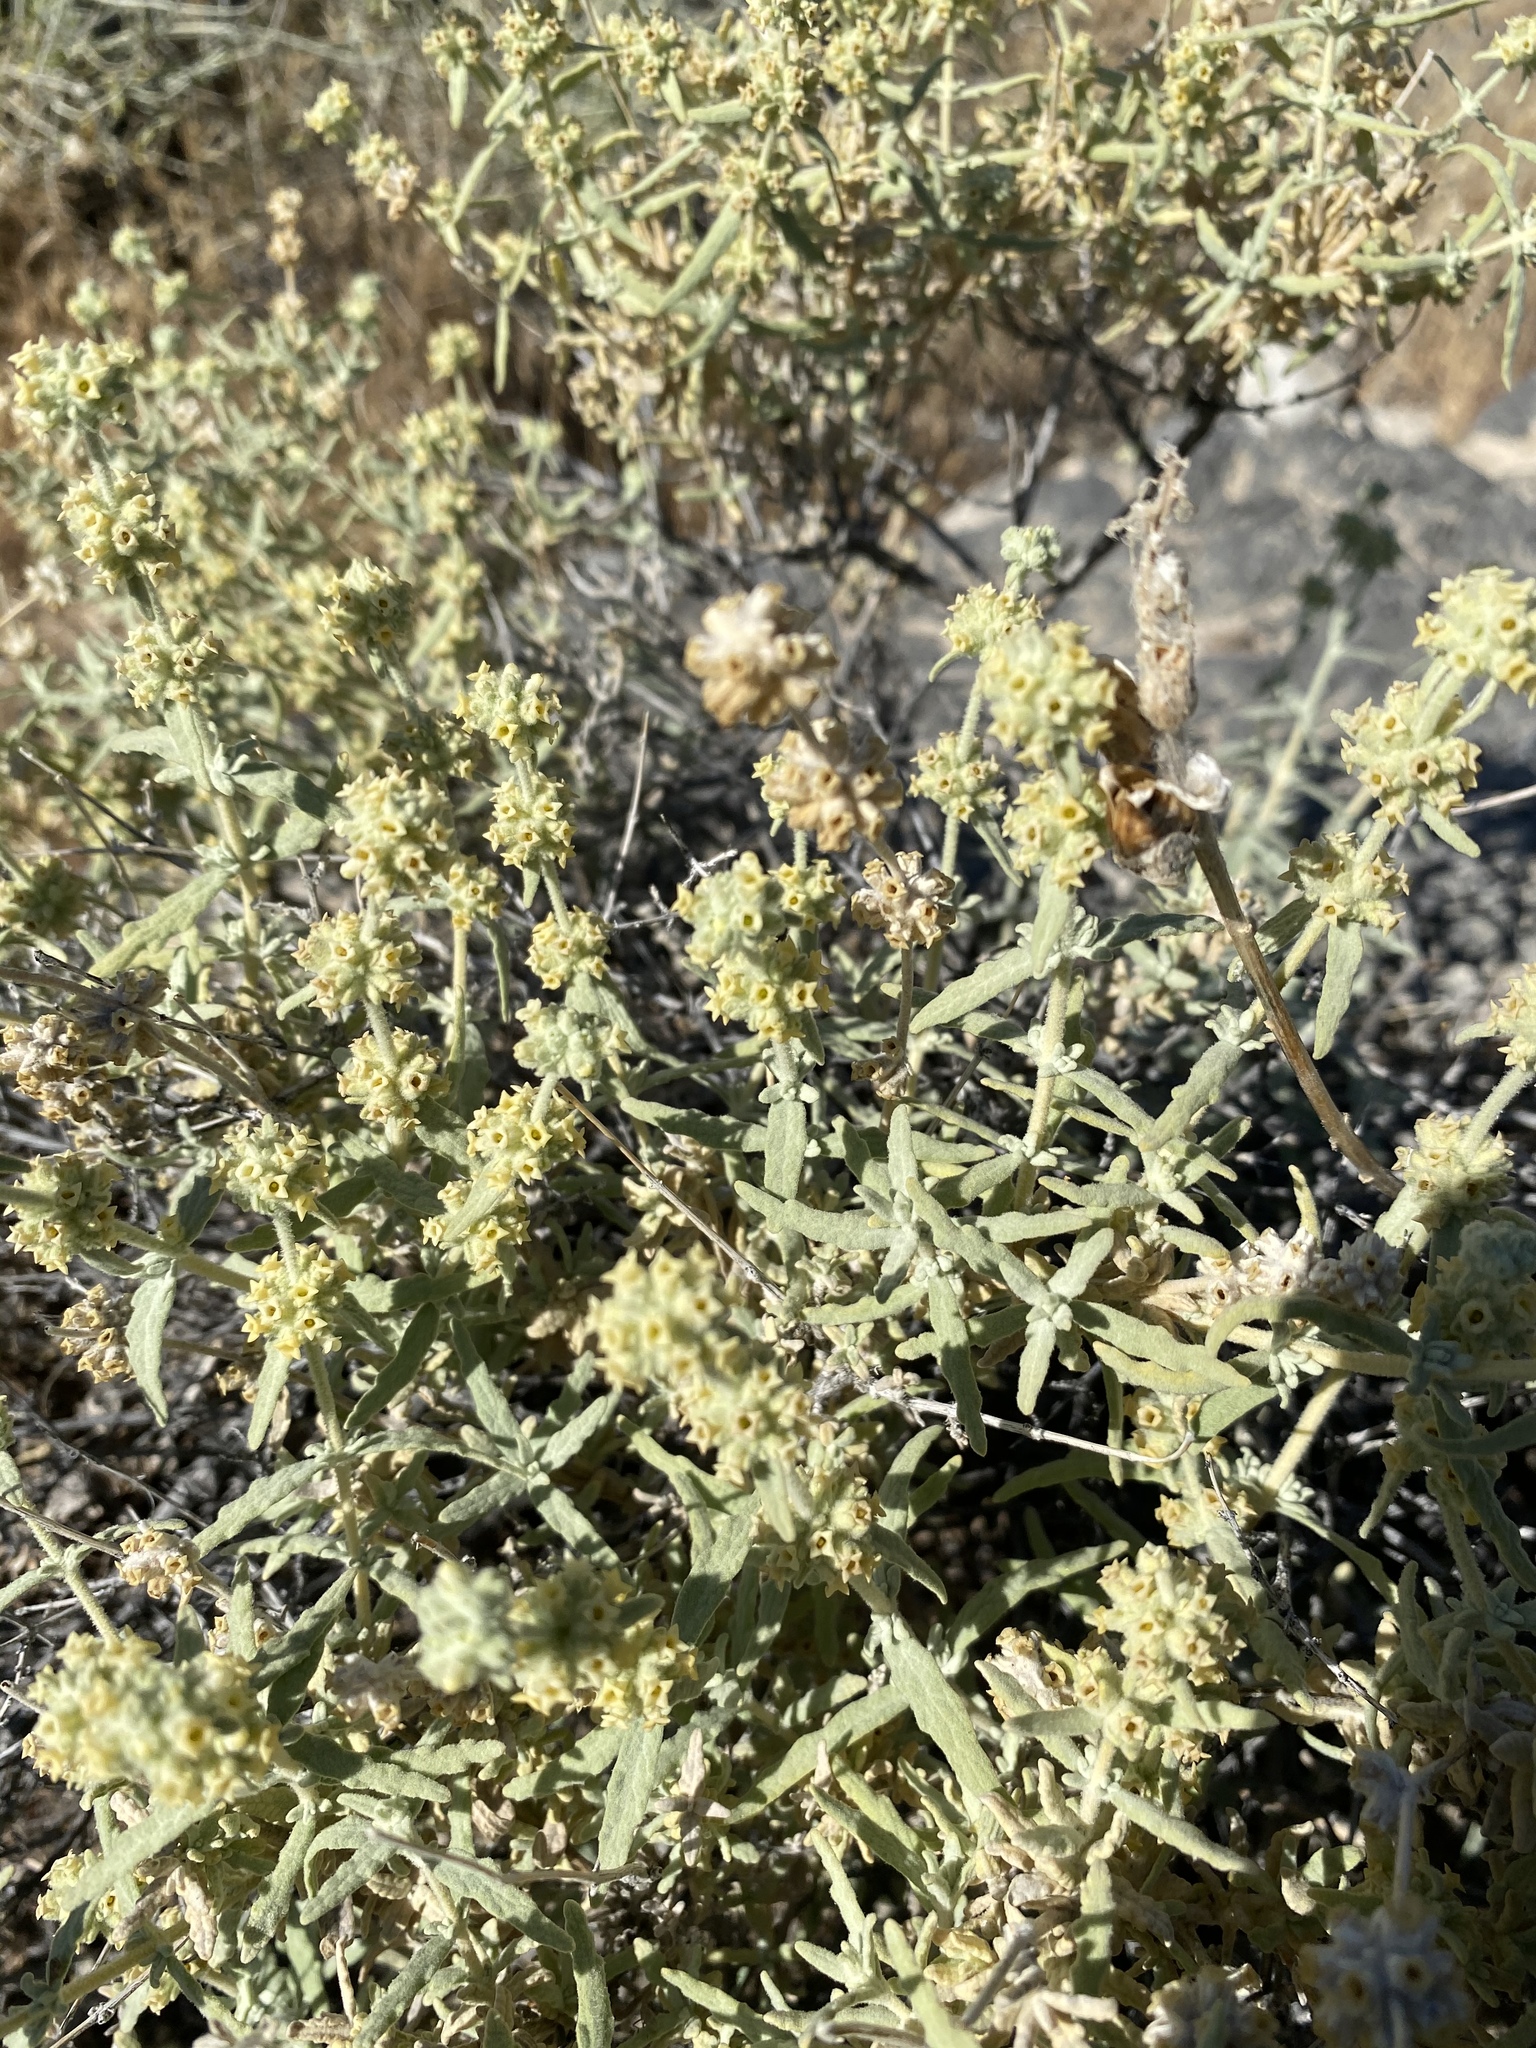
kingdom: Plantae
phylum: Tracheophyta
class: Magnoliopsida
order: Lamiales
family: Scrophulariaceae
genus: Buddleja
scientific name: Buddleja utahensis
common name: Utah butterfly-bush
